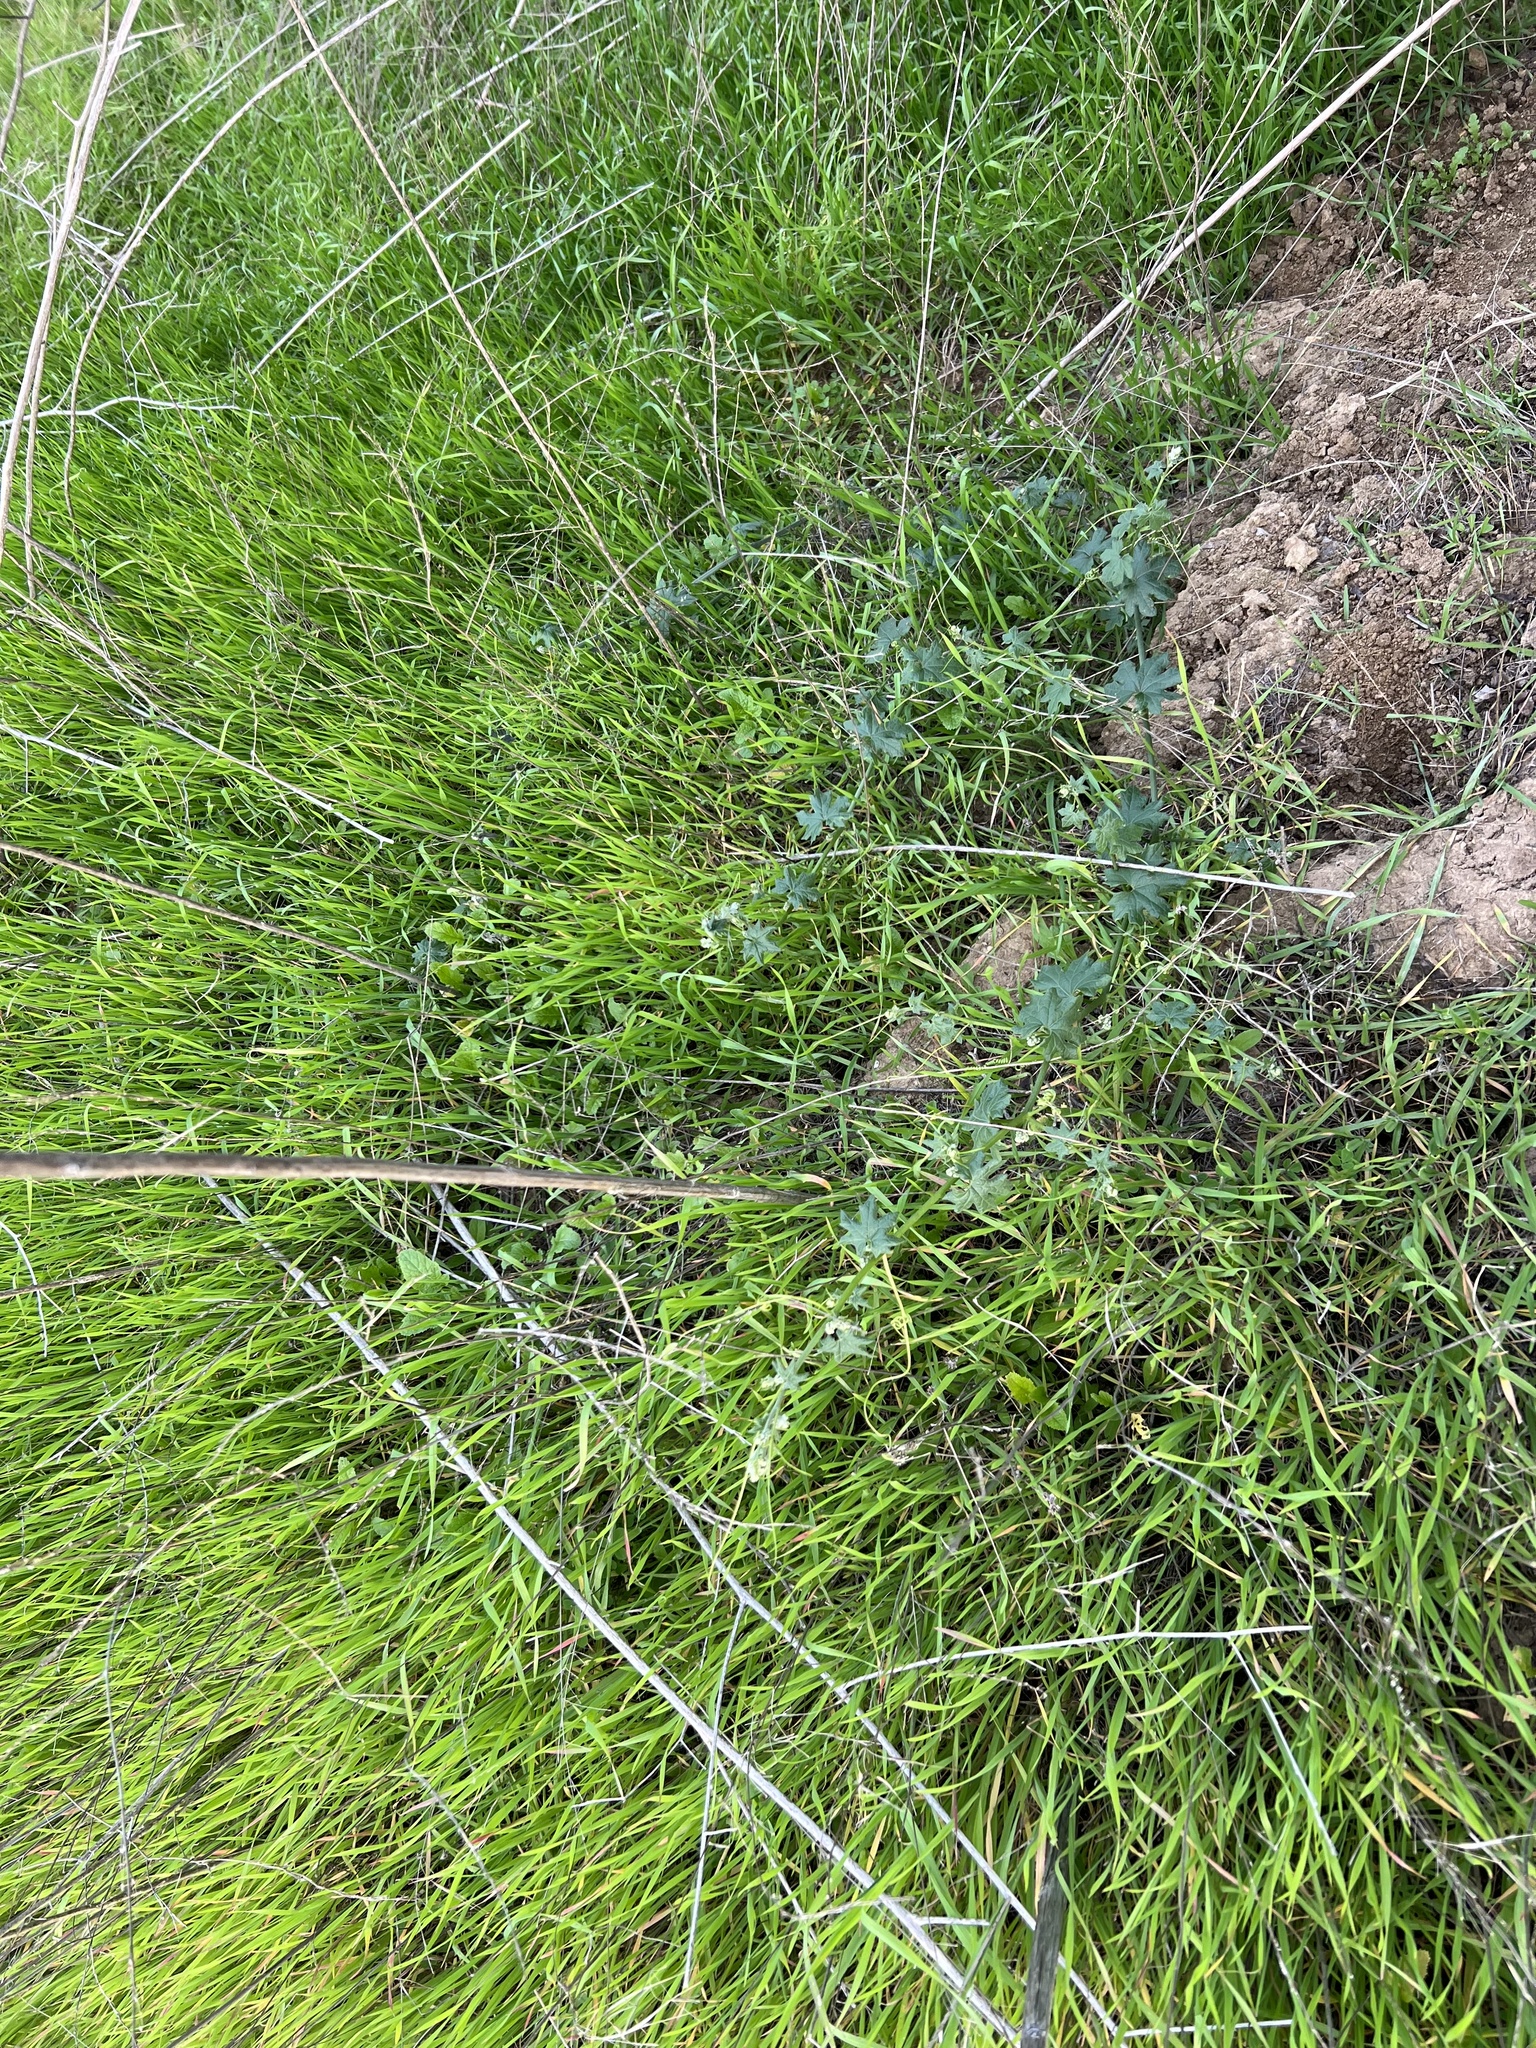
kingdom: Plantae
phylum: Tracheophyta
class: Magnoliopsida
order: Cucurbitales
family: Cucurbitaceae
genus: Marah
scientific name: Marah macrocarpa
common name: Cucamonga manroot
